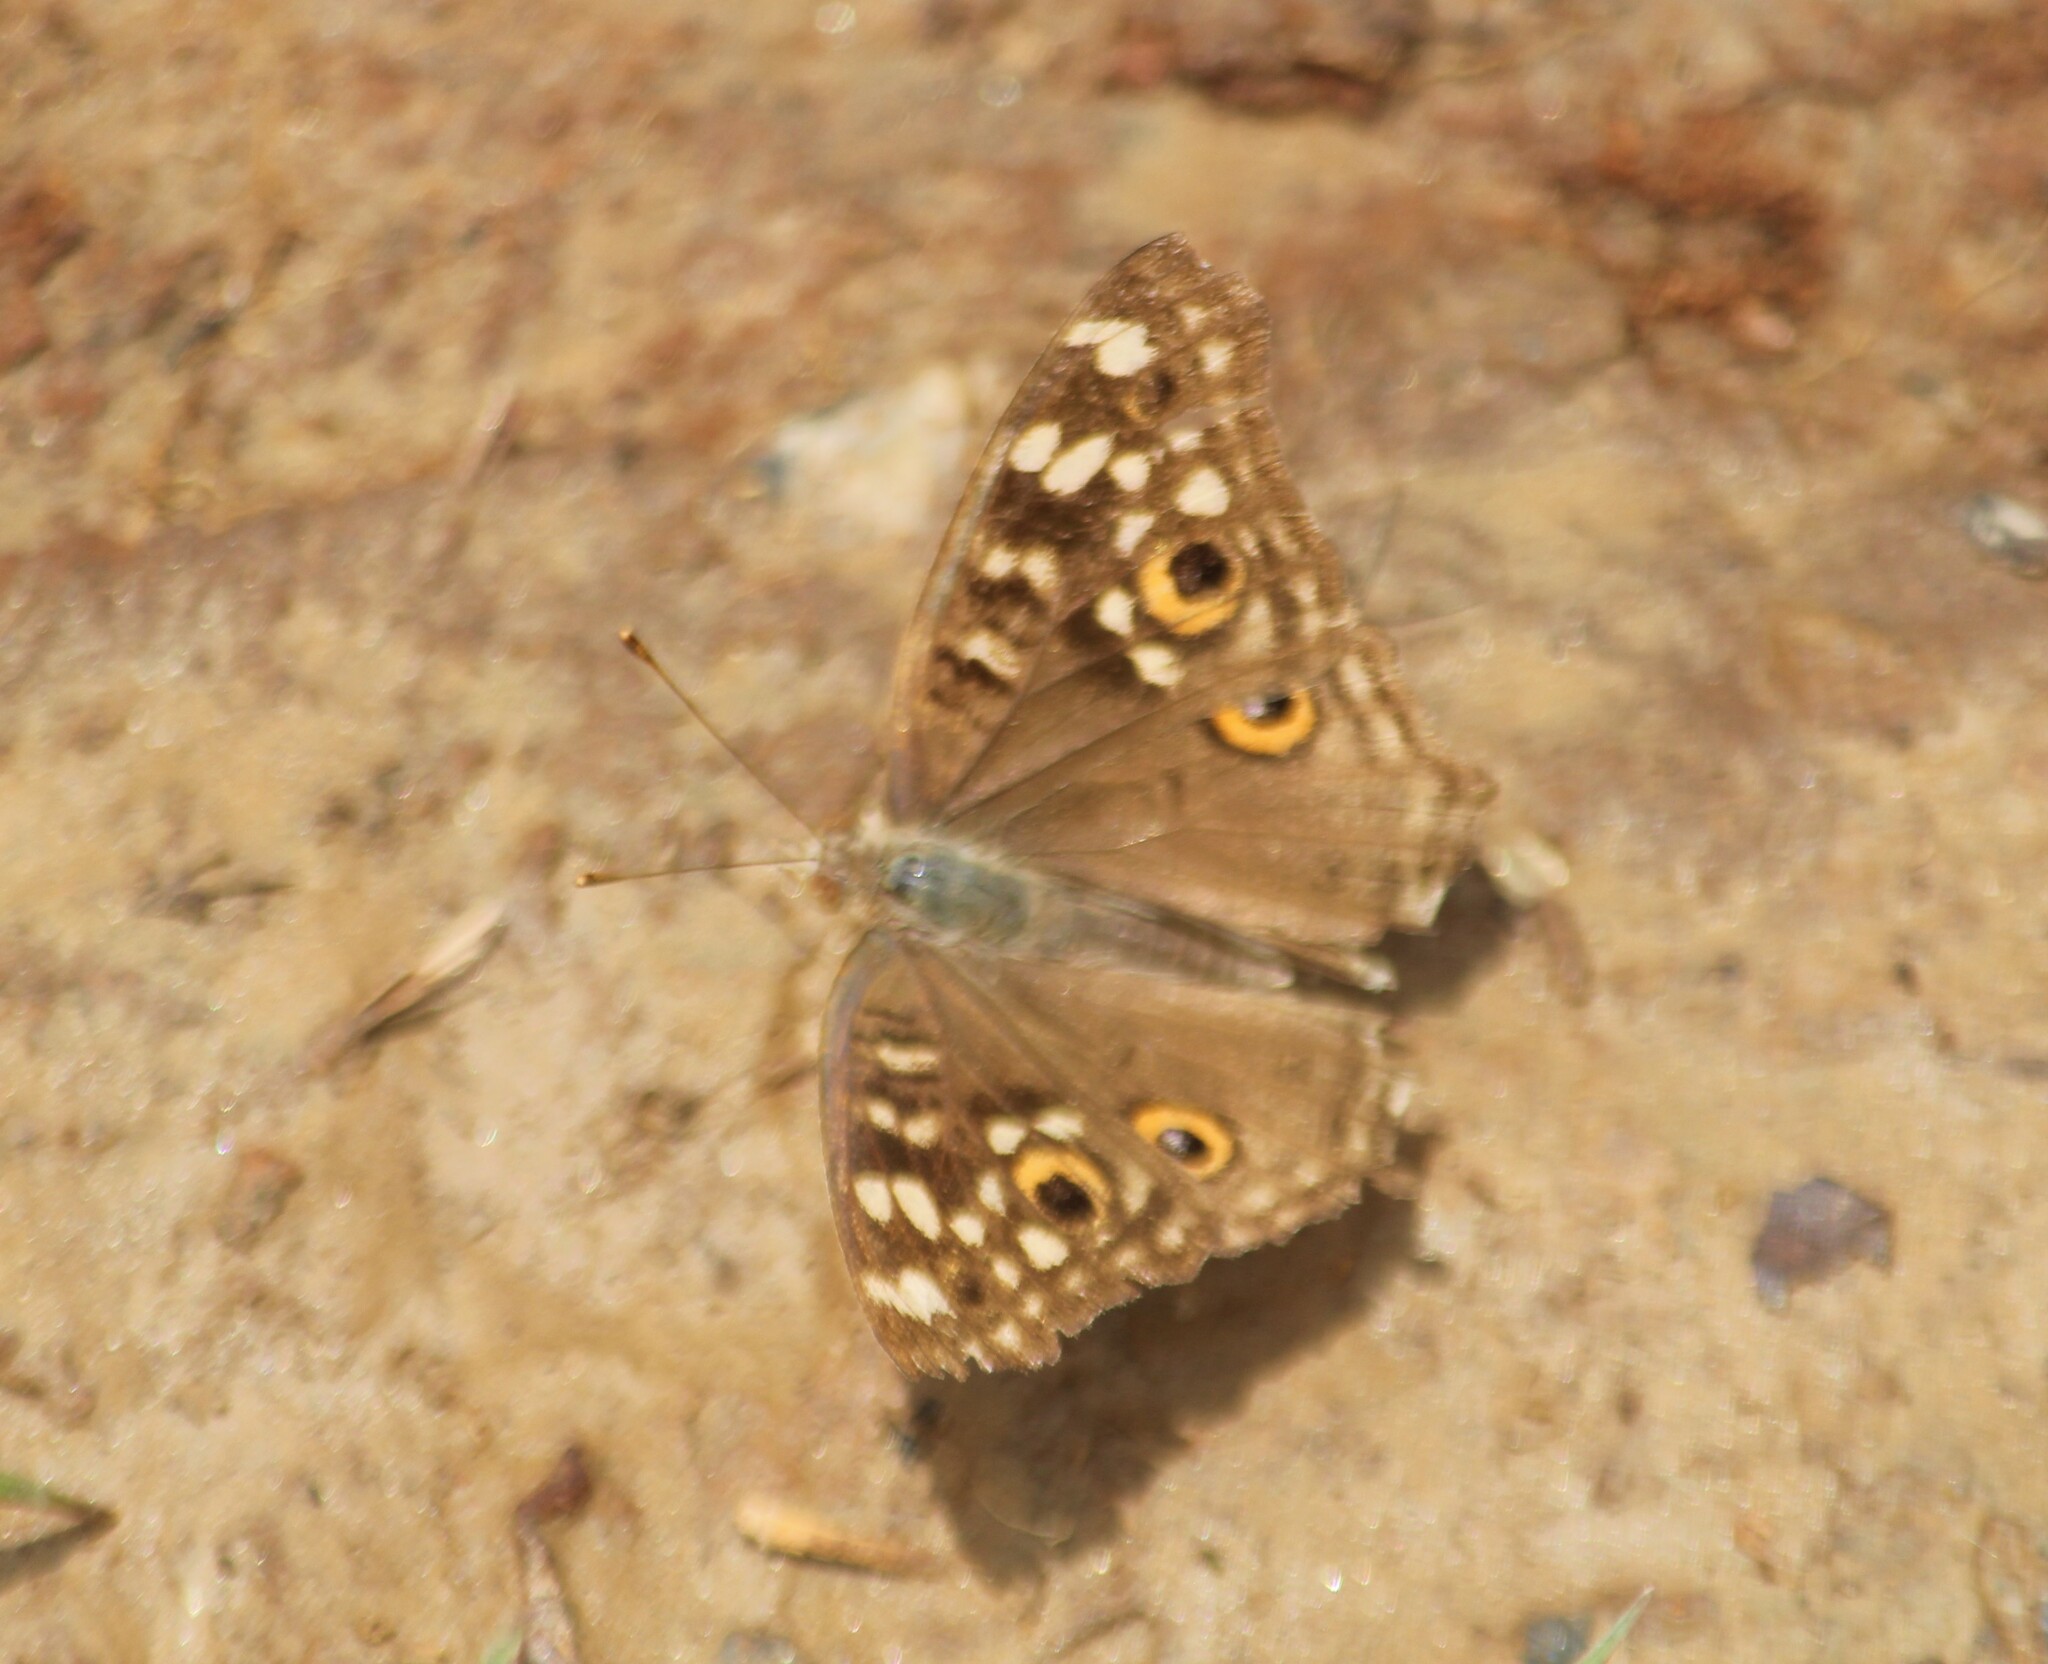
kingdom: Animalia
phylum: Arthropoda
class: Insecta
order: Lepidoptera
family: Nymphalidae
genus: Junonia
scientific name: Junonia lemonias
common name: Lemon pansy
